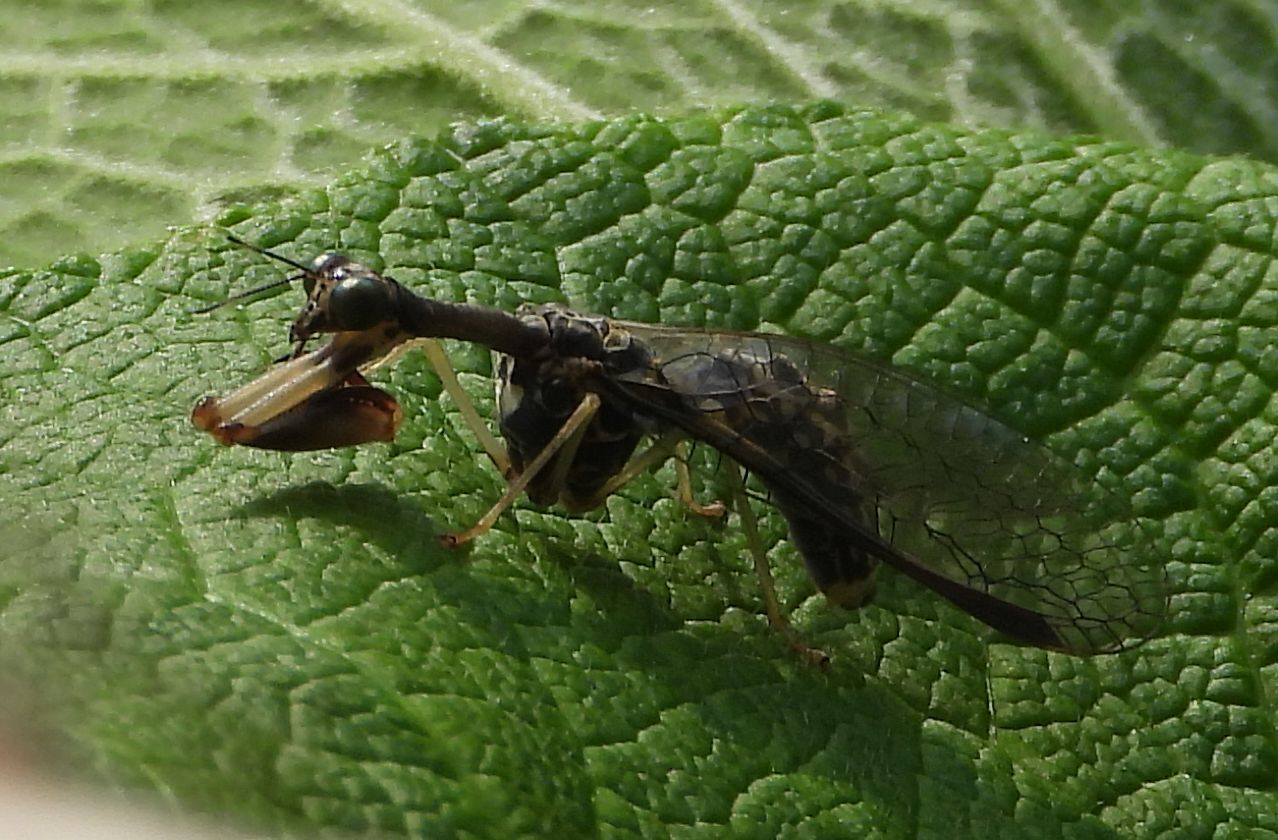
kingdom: Animalia
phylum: Arthropoda
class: Insecta
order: Neuroptera
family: Mantispidae
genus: Dicromantispa
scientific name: Dicromantispa sayi
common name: Say's mantidfly
